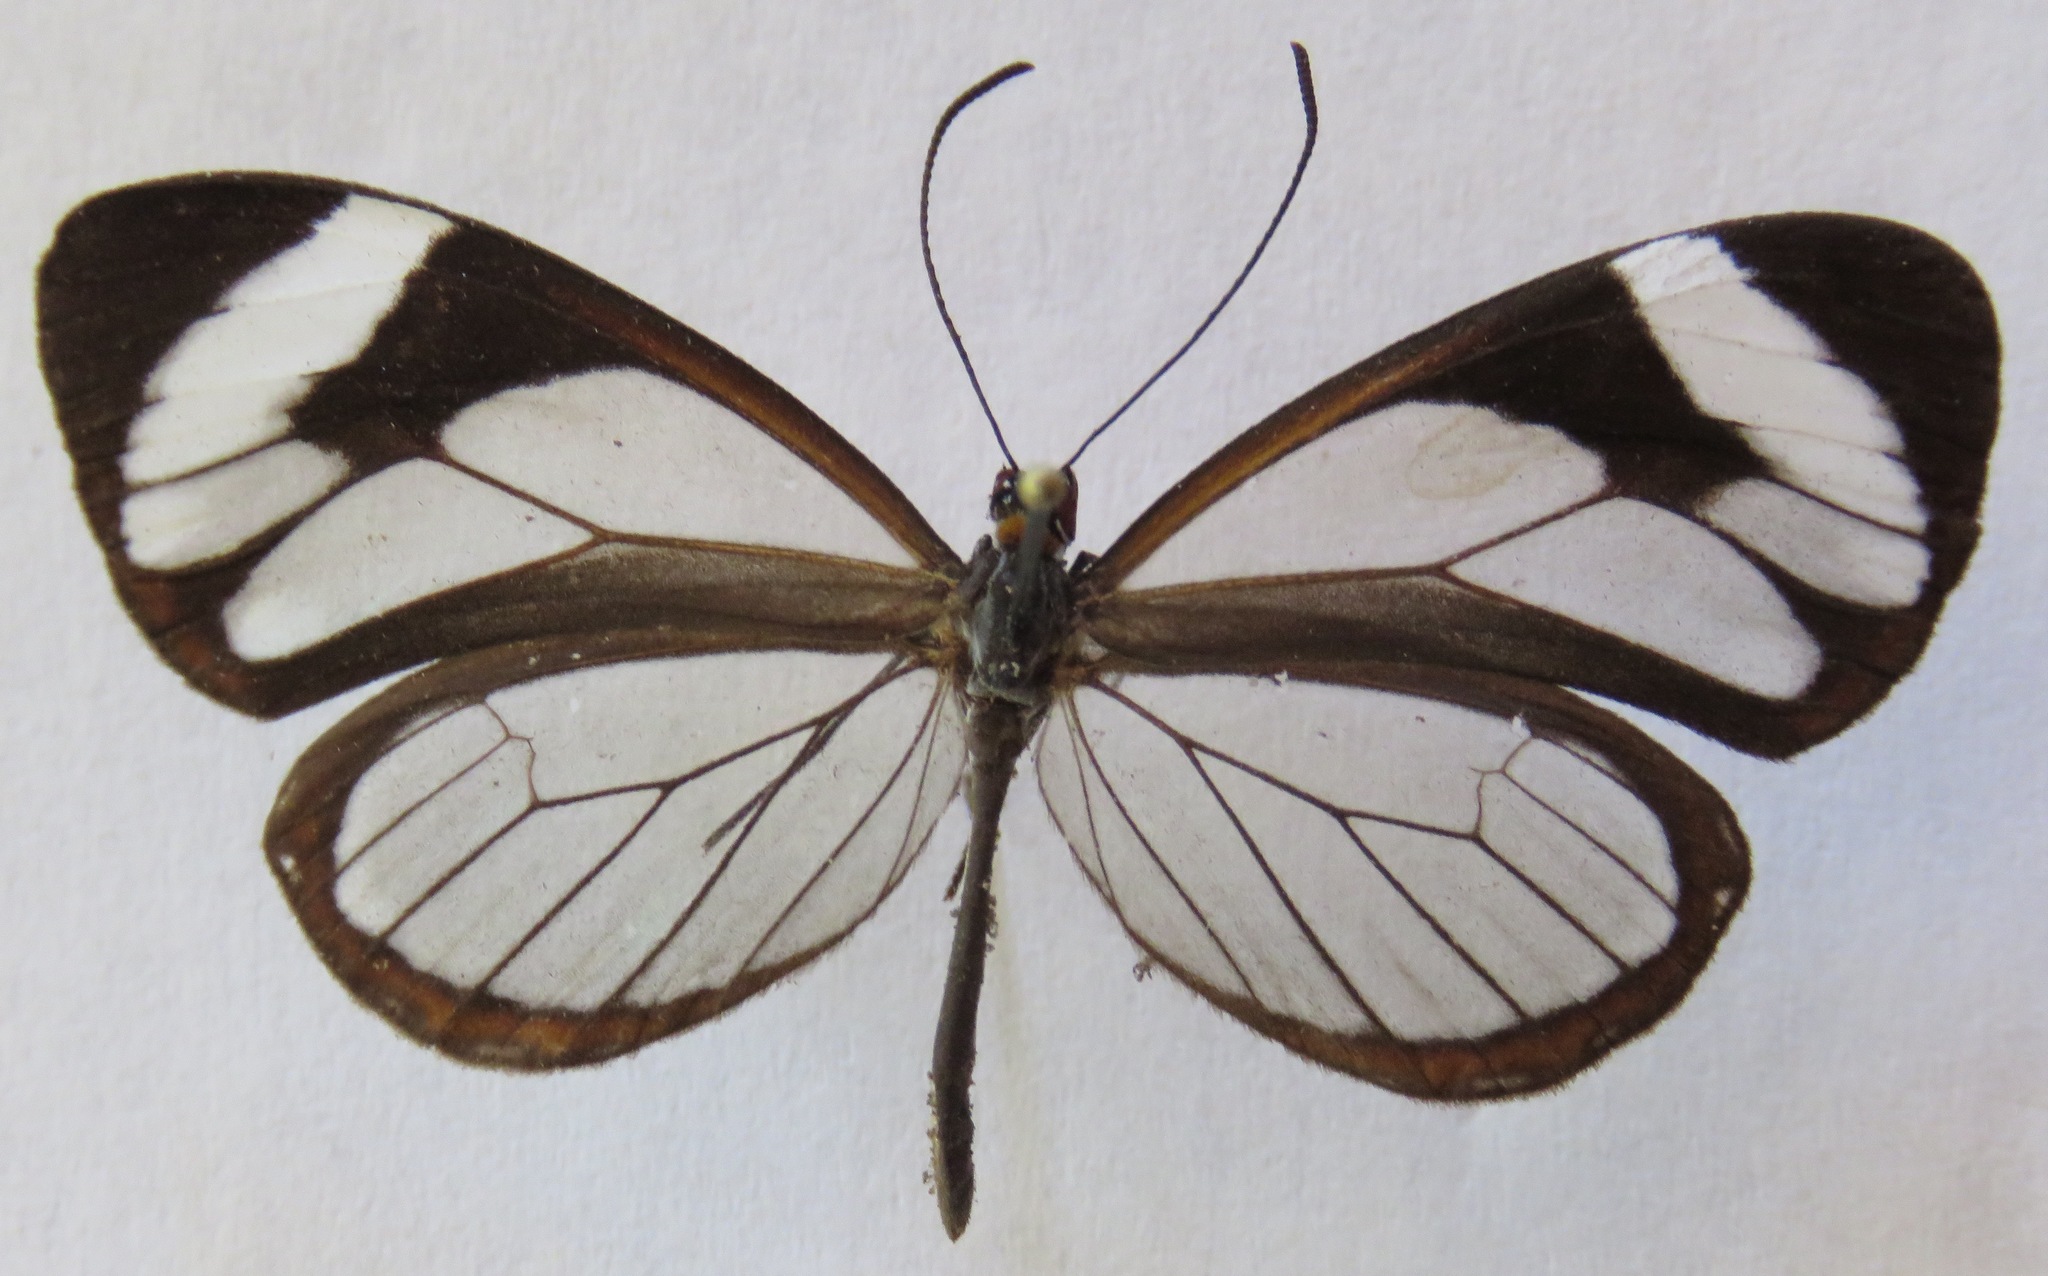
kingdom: Animalia
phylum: Arthropoda
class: Insecta
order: Lepidoptera
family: Nymphalidae
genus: Ithomia
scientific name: Ithomia patilla
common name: Patilla clearwing
